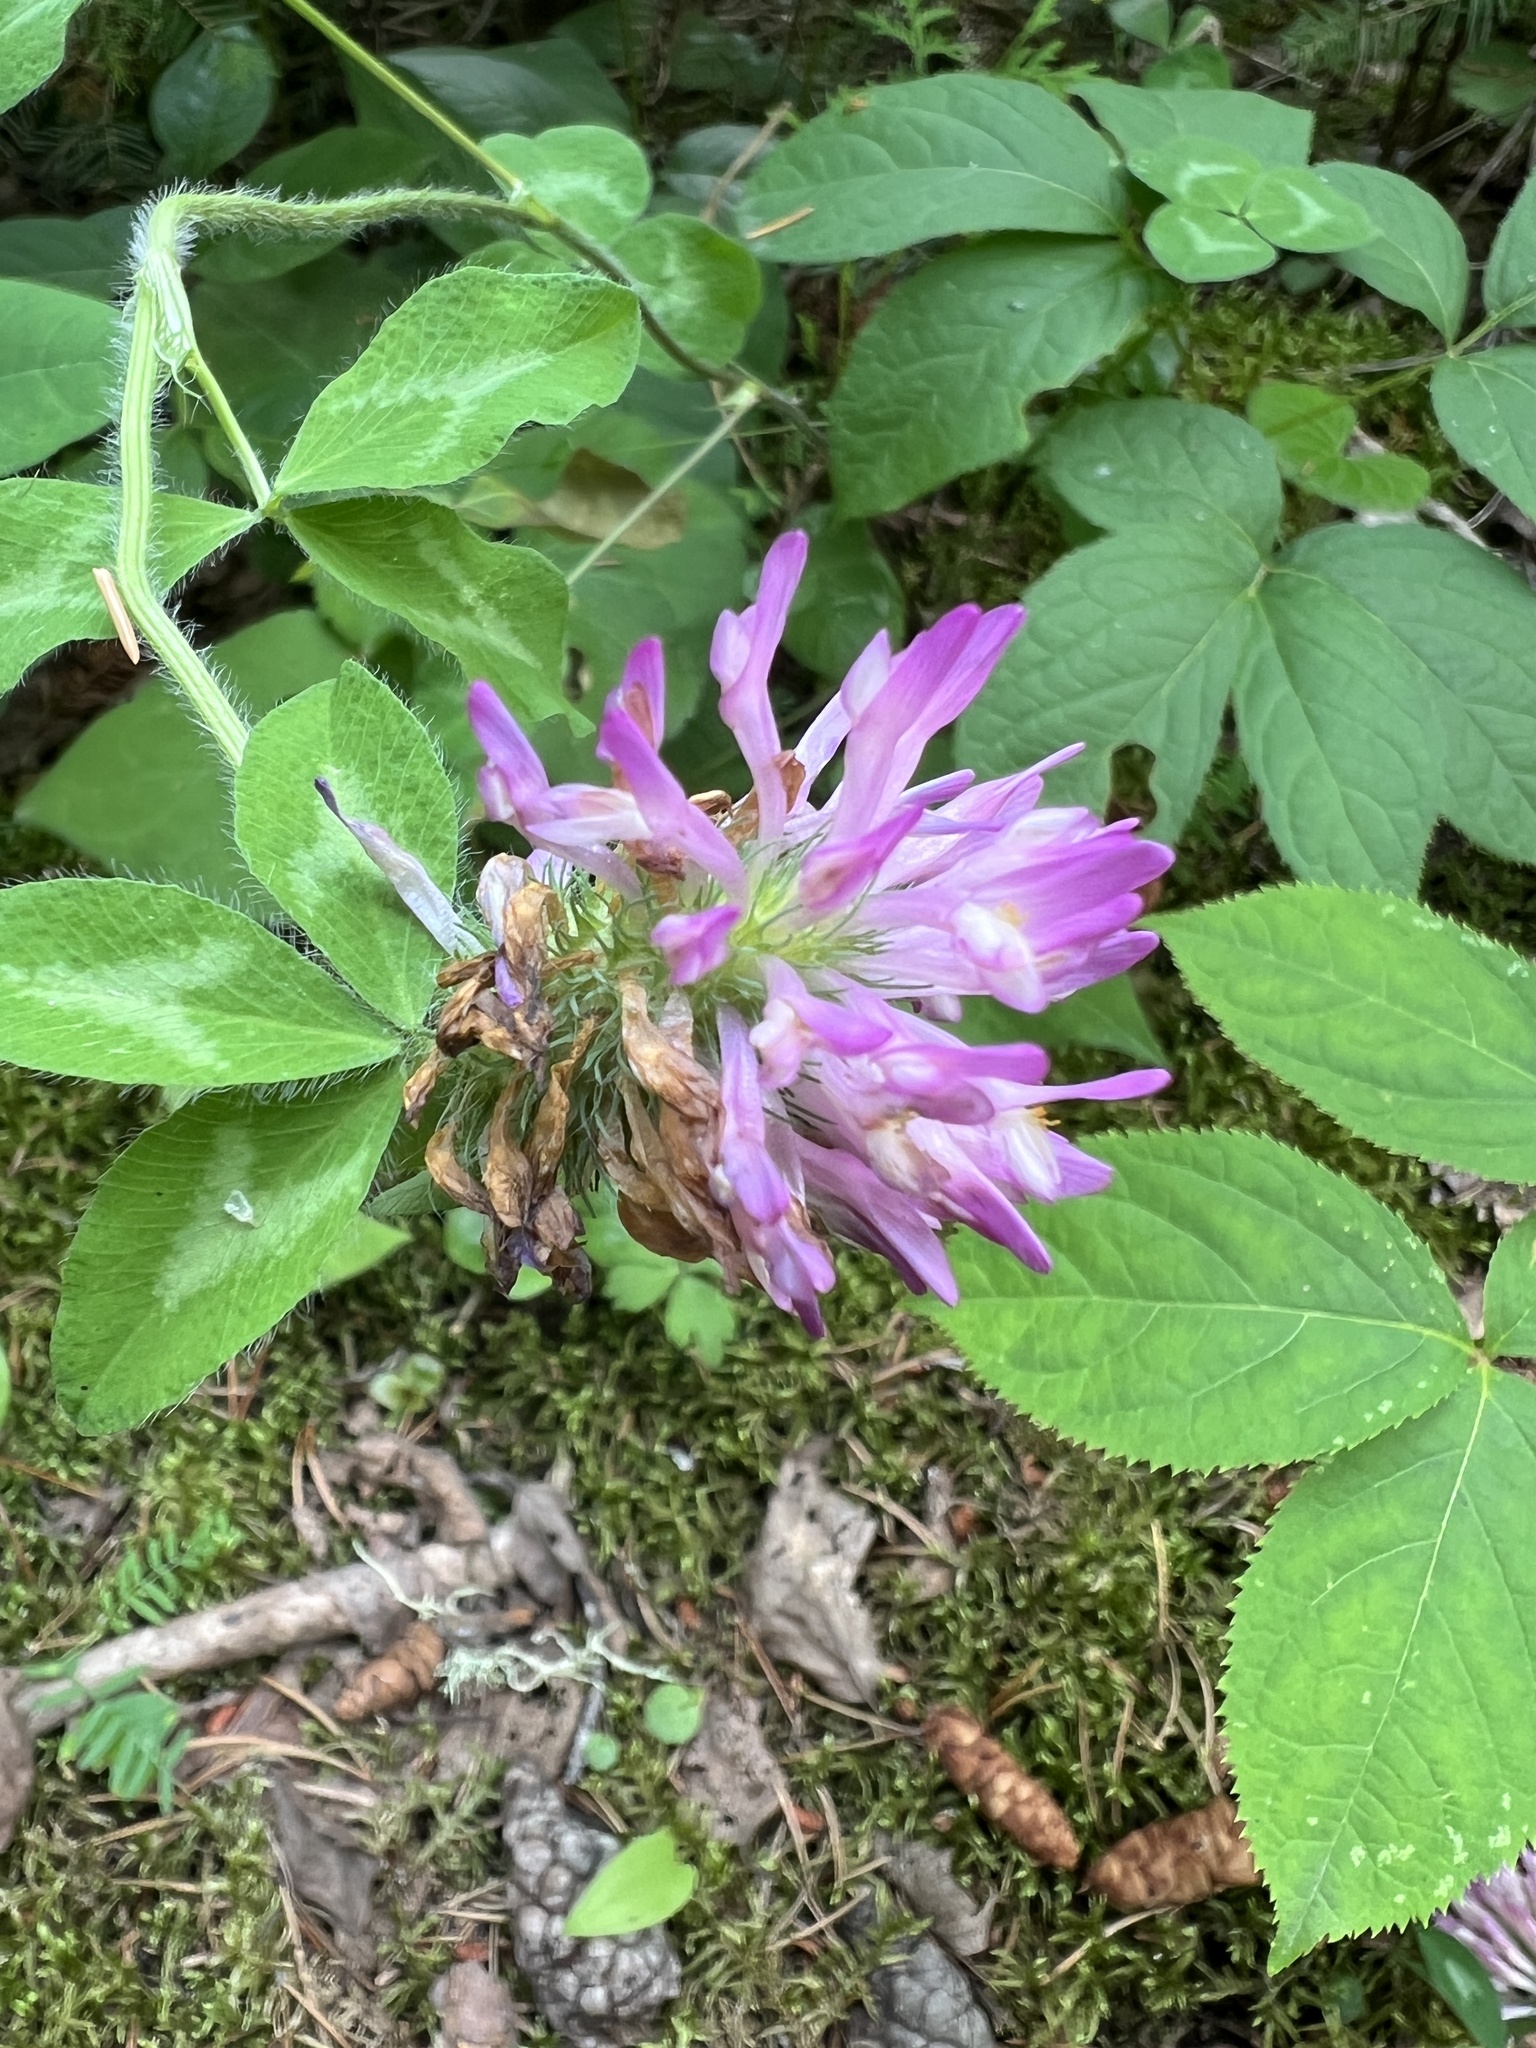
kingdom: Plantae
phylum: Tracheophyta
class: Magnoliopsida
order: Fabales
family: Fabaceae
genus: Trifolium
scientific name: Trifolium pratense
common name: Red clover
